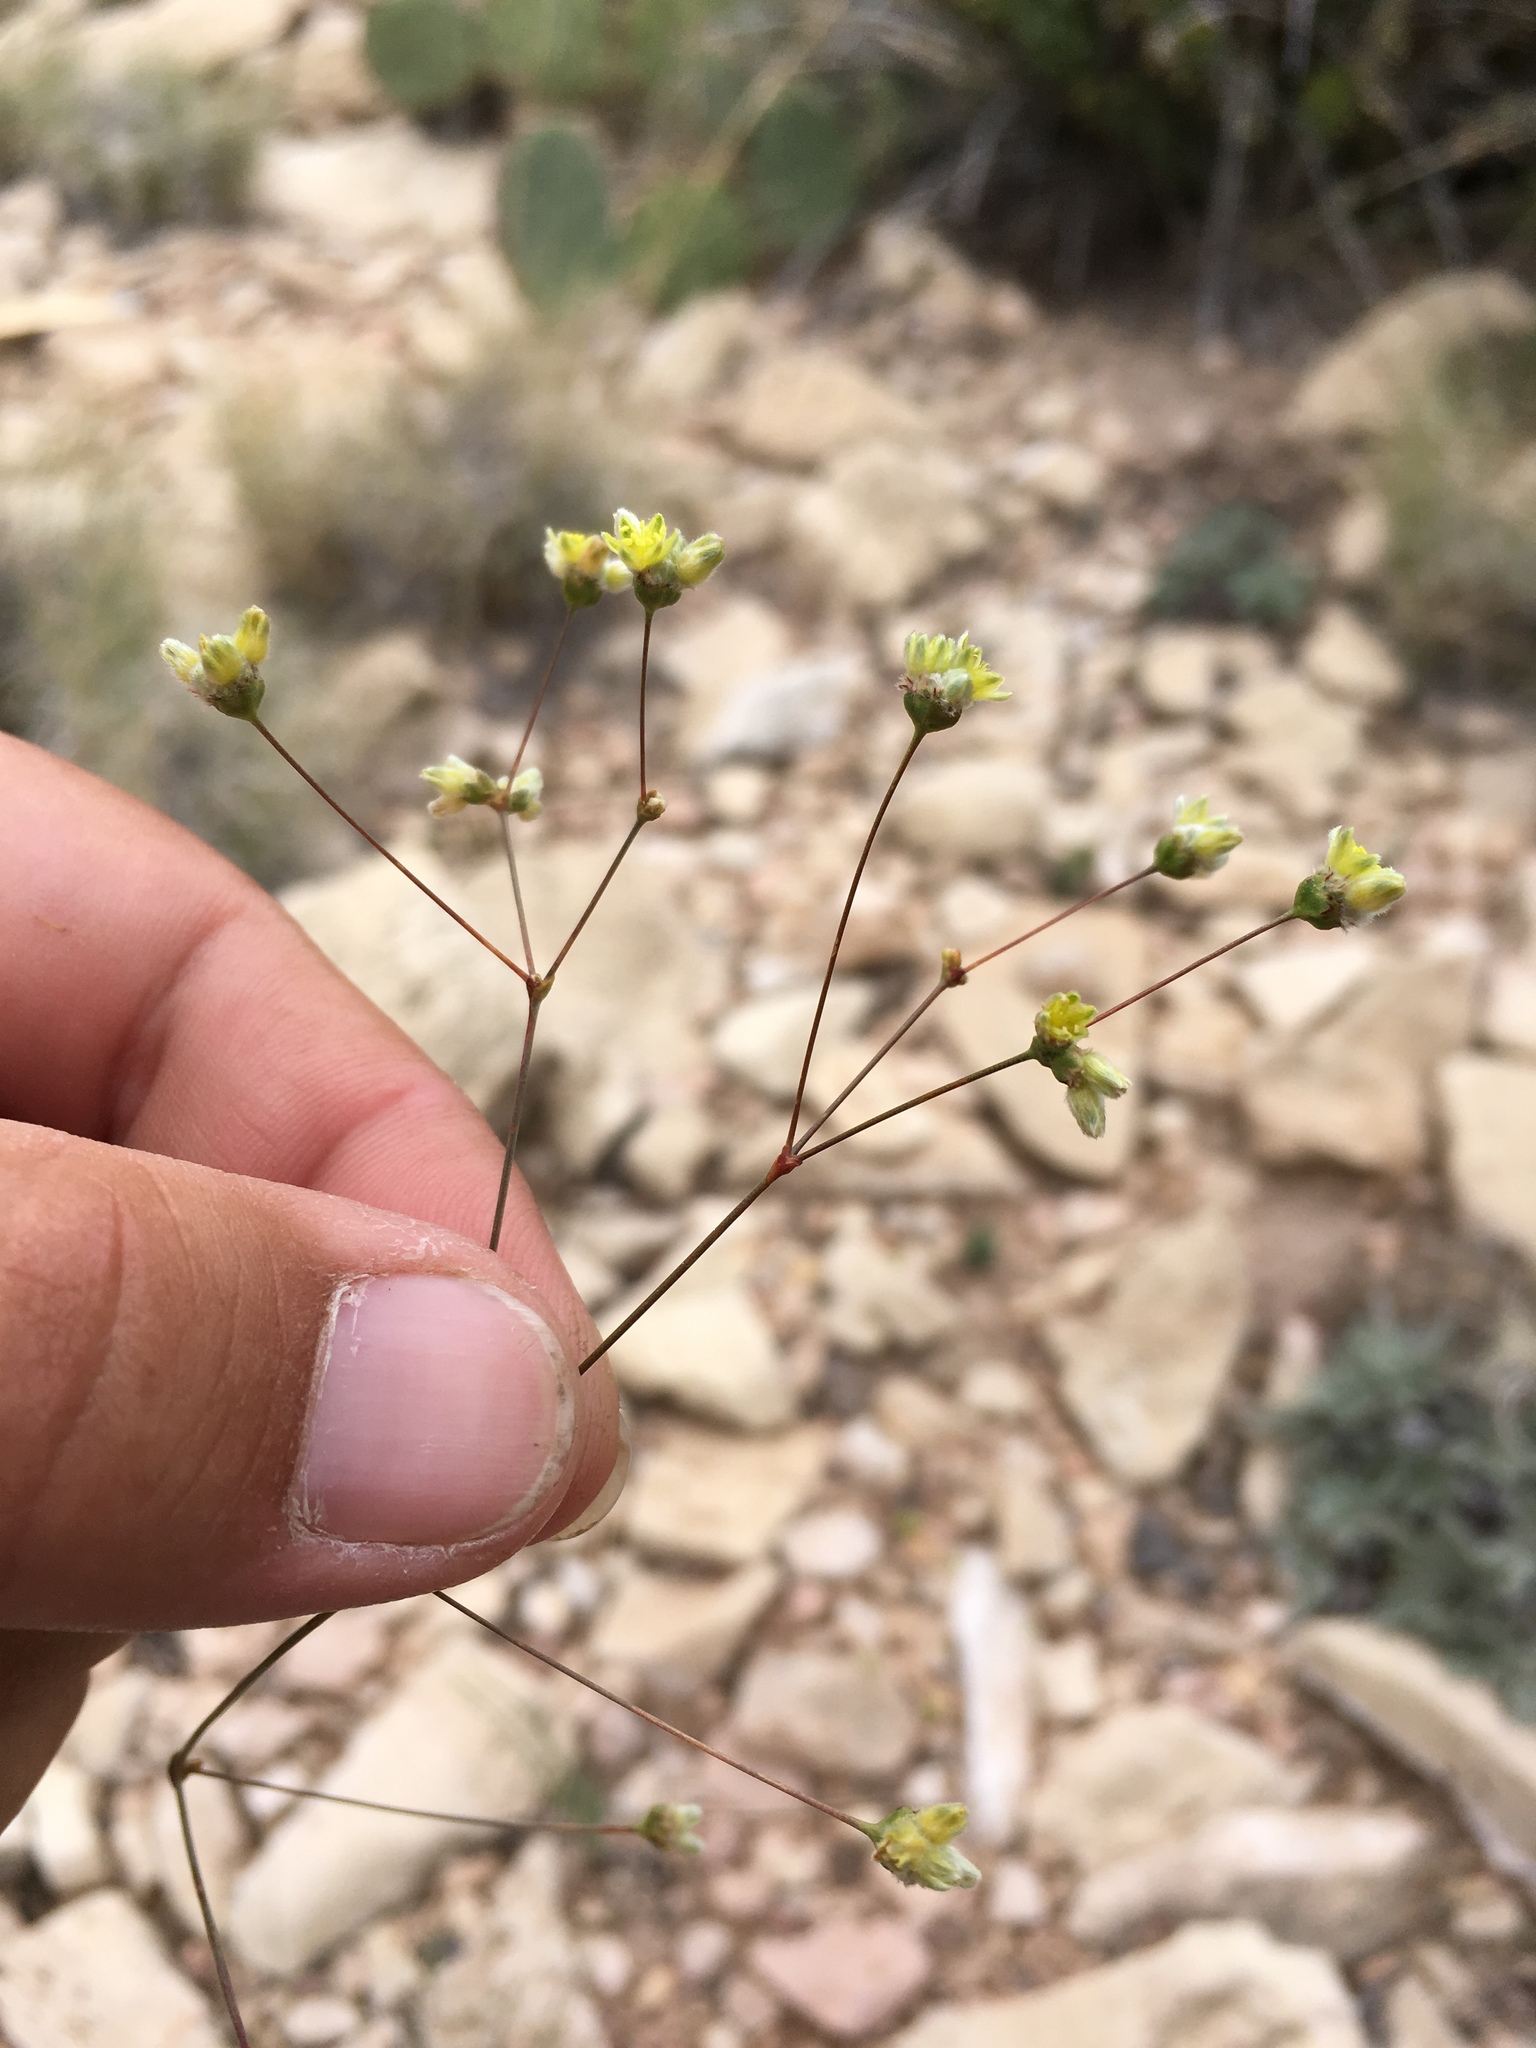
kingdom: Plantae
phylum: Tracheophyta
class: Magnoliopsida
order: Caryophyllales
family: Polygonaceae
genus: Eriogonum
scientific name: Eriogonum havardii
